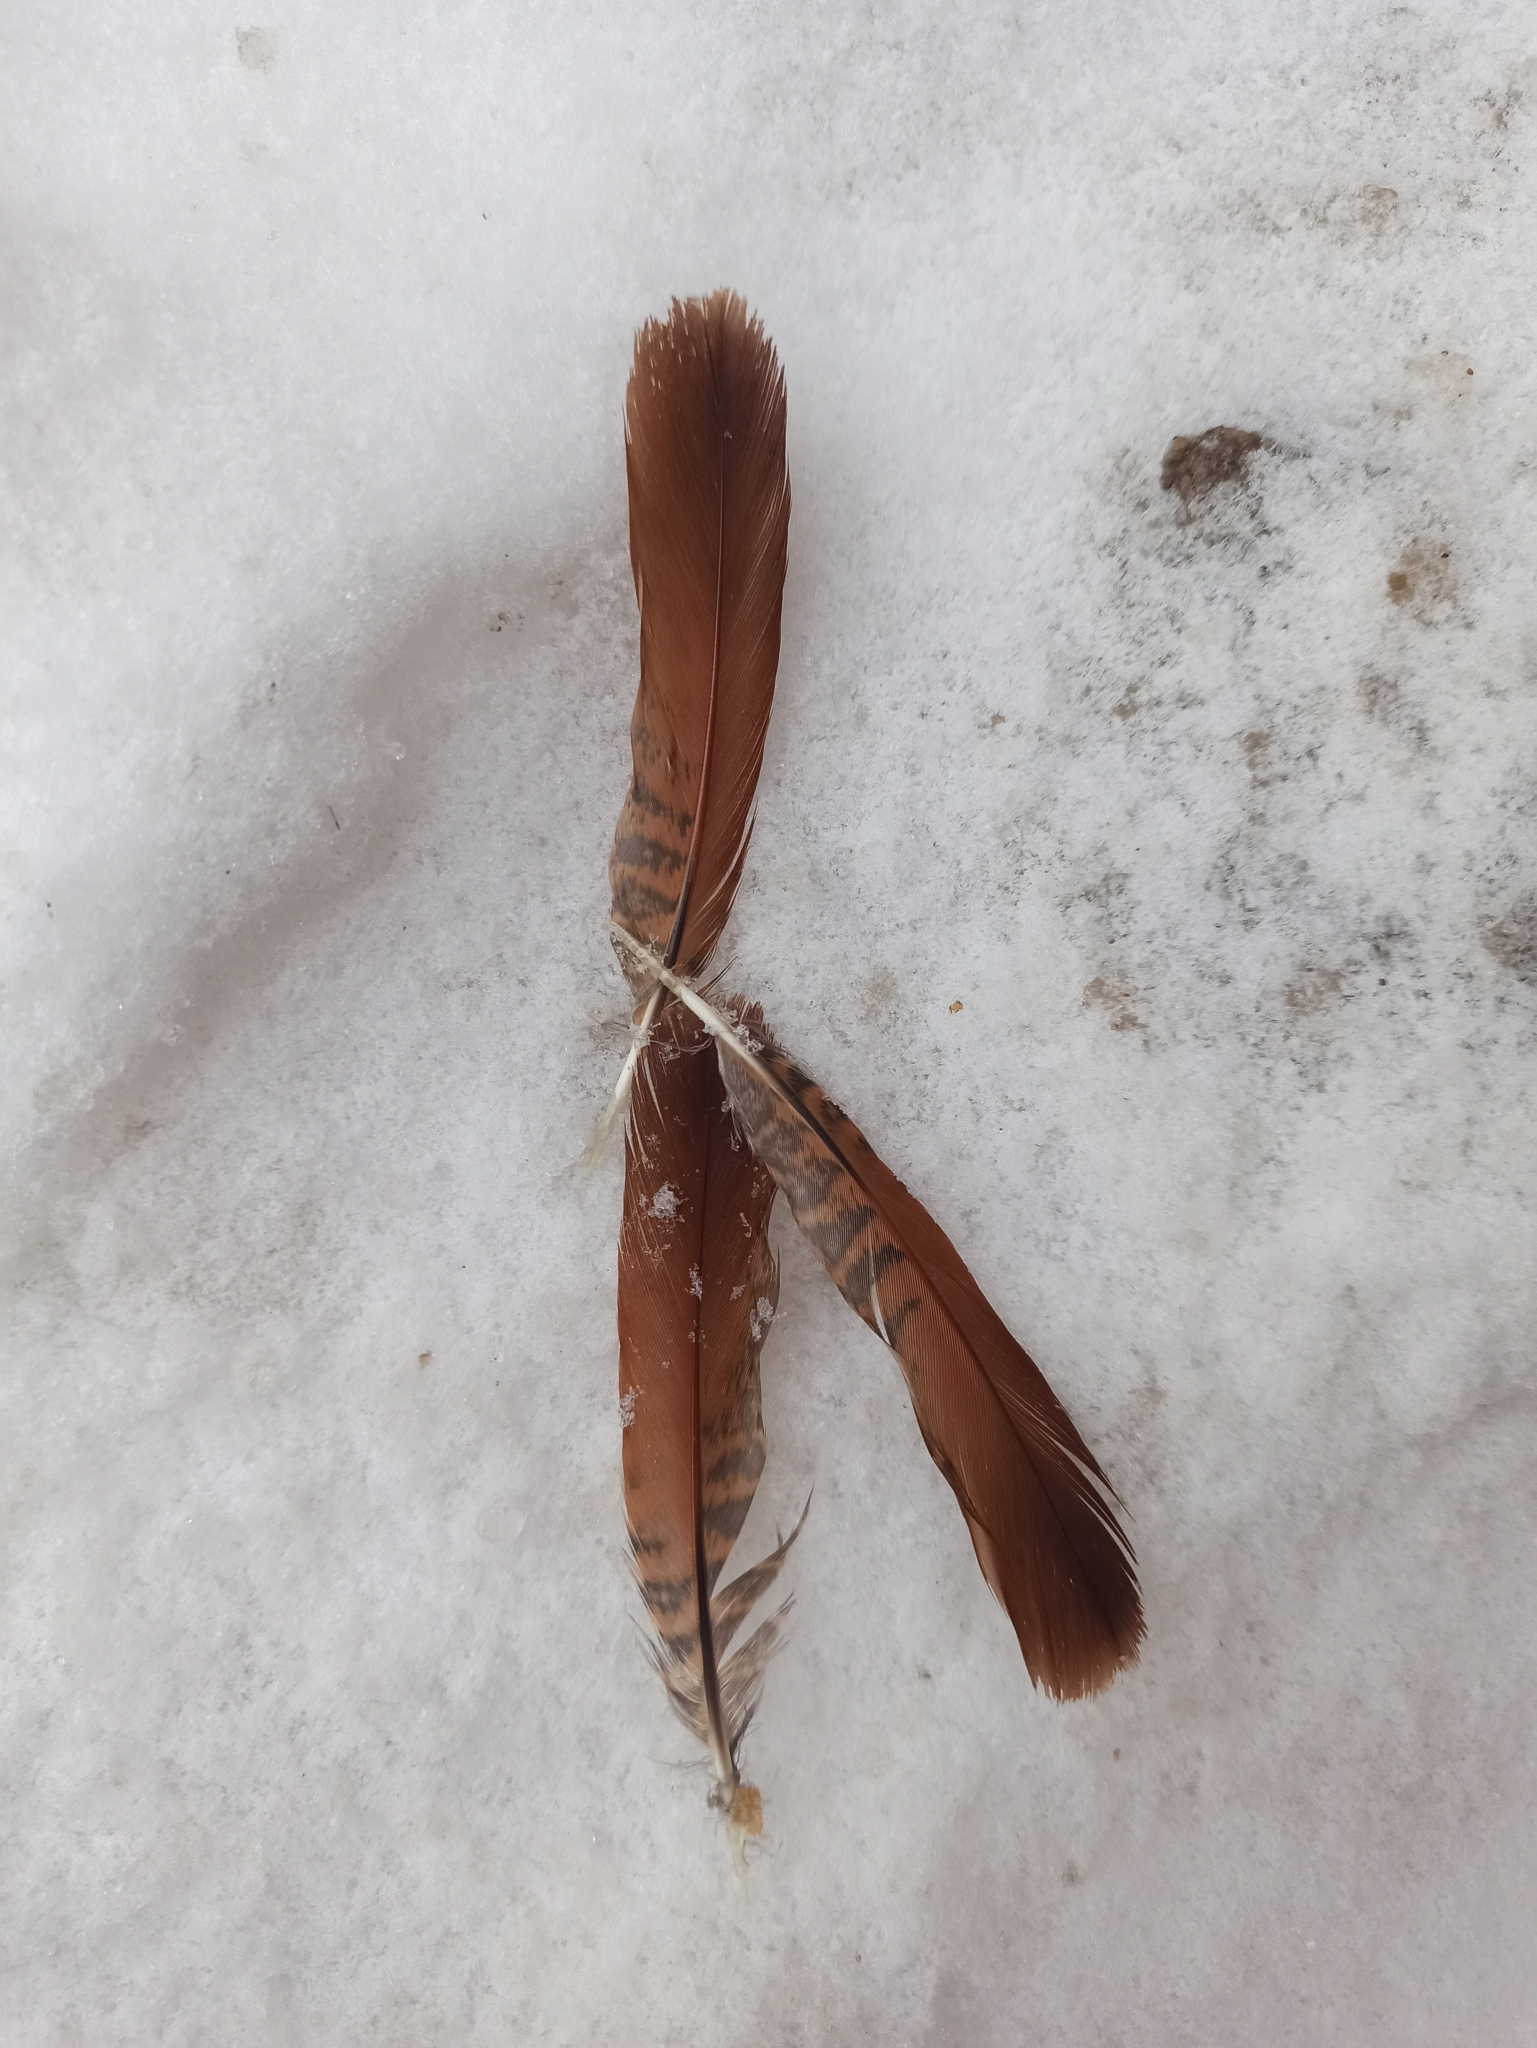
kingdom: Animalia
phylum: Chordata
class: Aves
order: Galliformes
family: Phasianidae
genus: Perdix
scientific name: Perdix perdix
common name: Grey partridge
